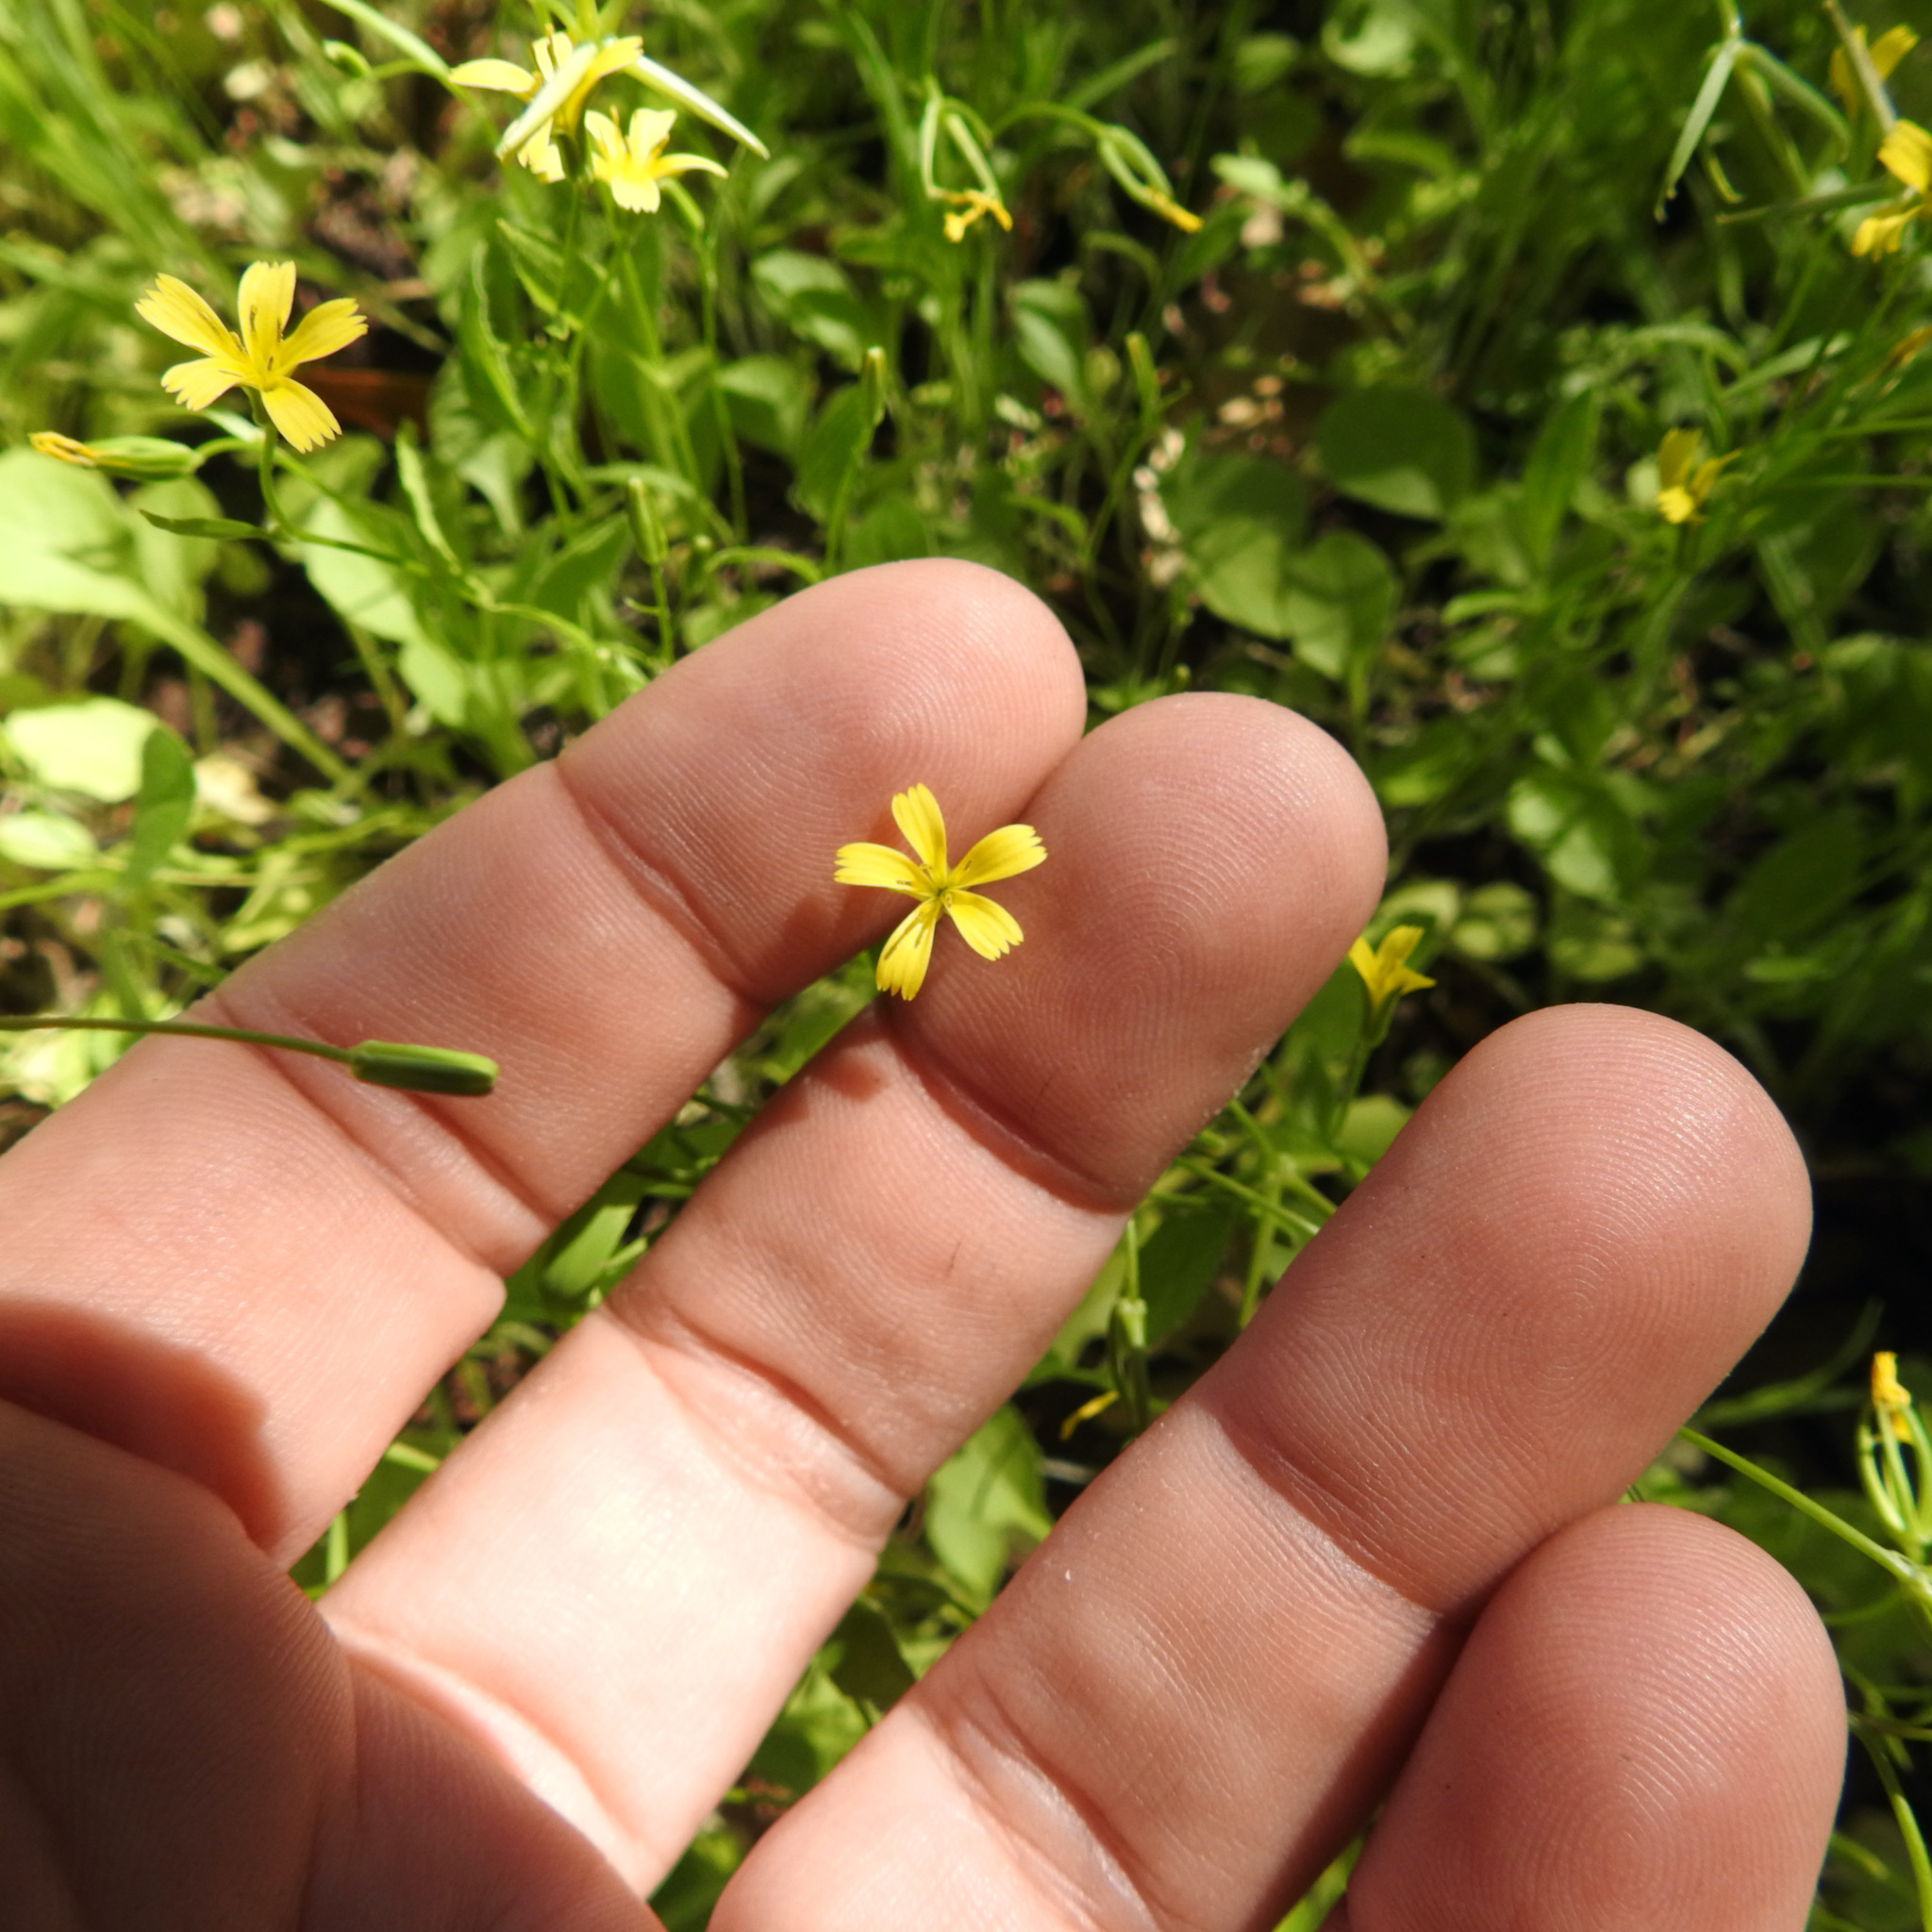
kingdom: Plantae
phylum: Tracheophyta
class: Magnoliopsida
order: Asterales
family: Asteraceae
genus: Rhagadiolus
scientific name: Rhagadiolus stellatus
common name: Star hawkbit
